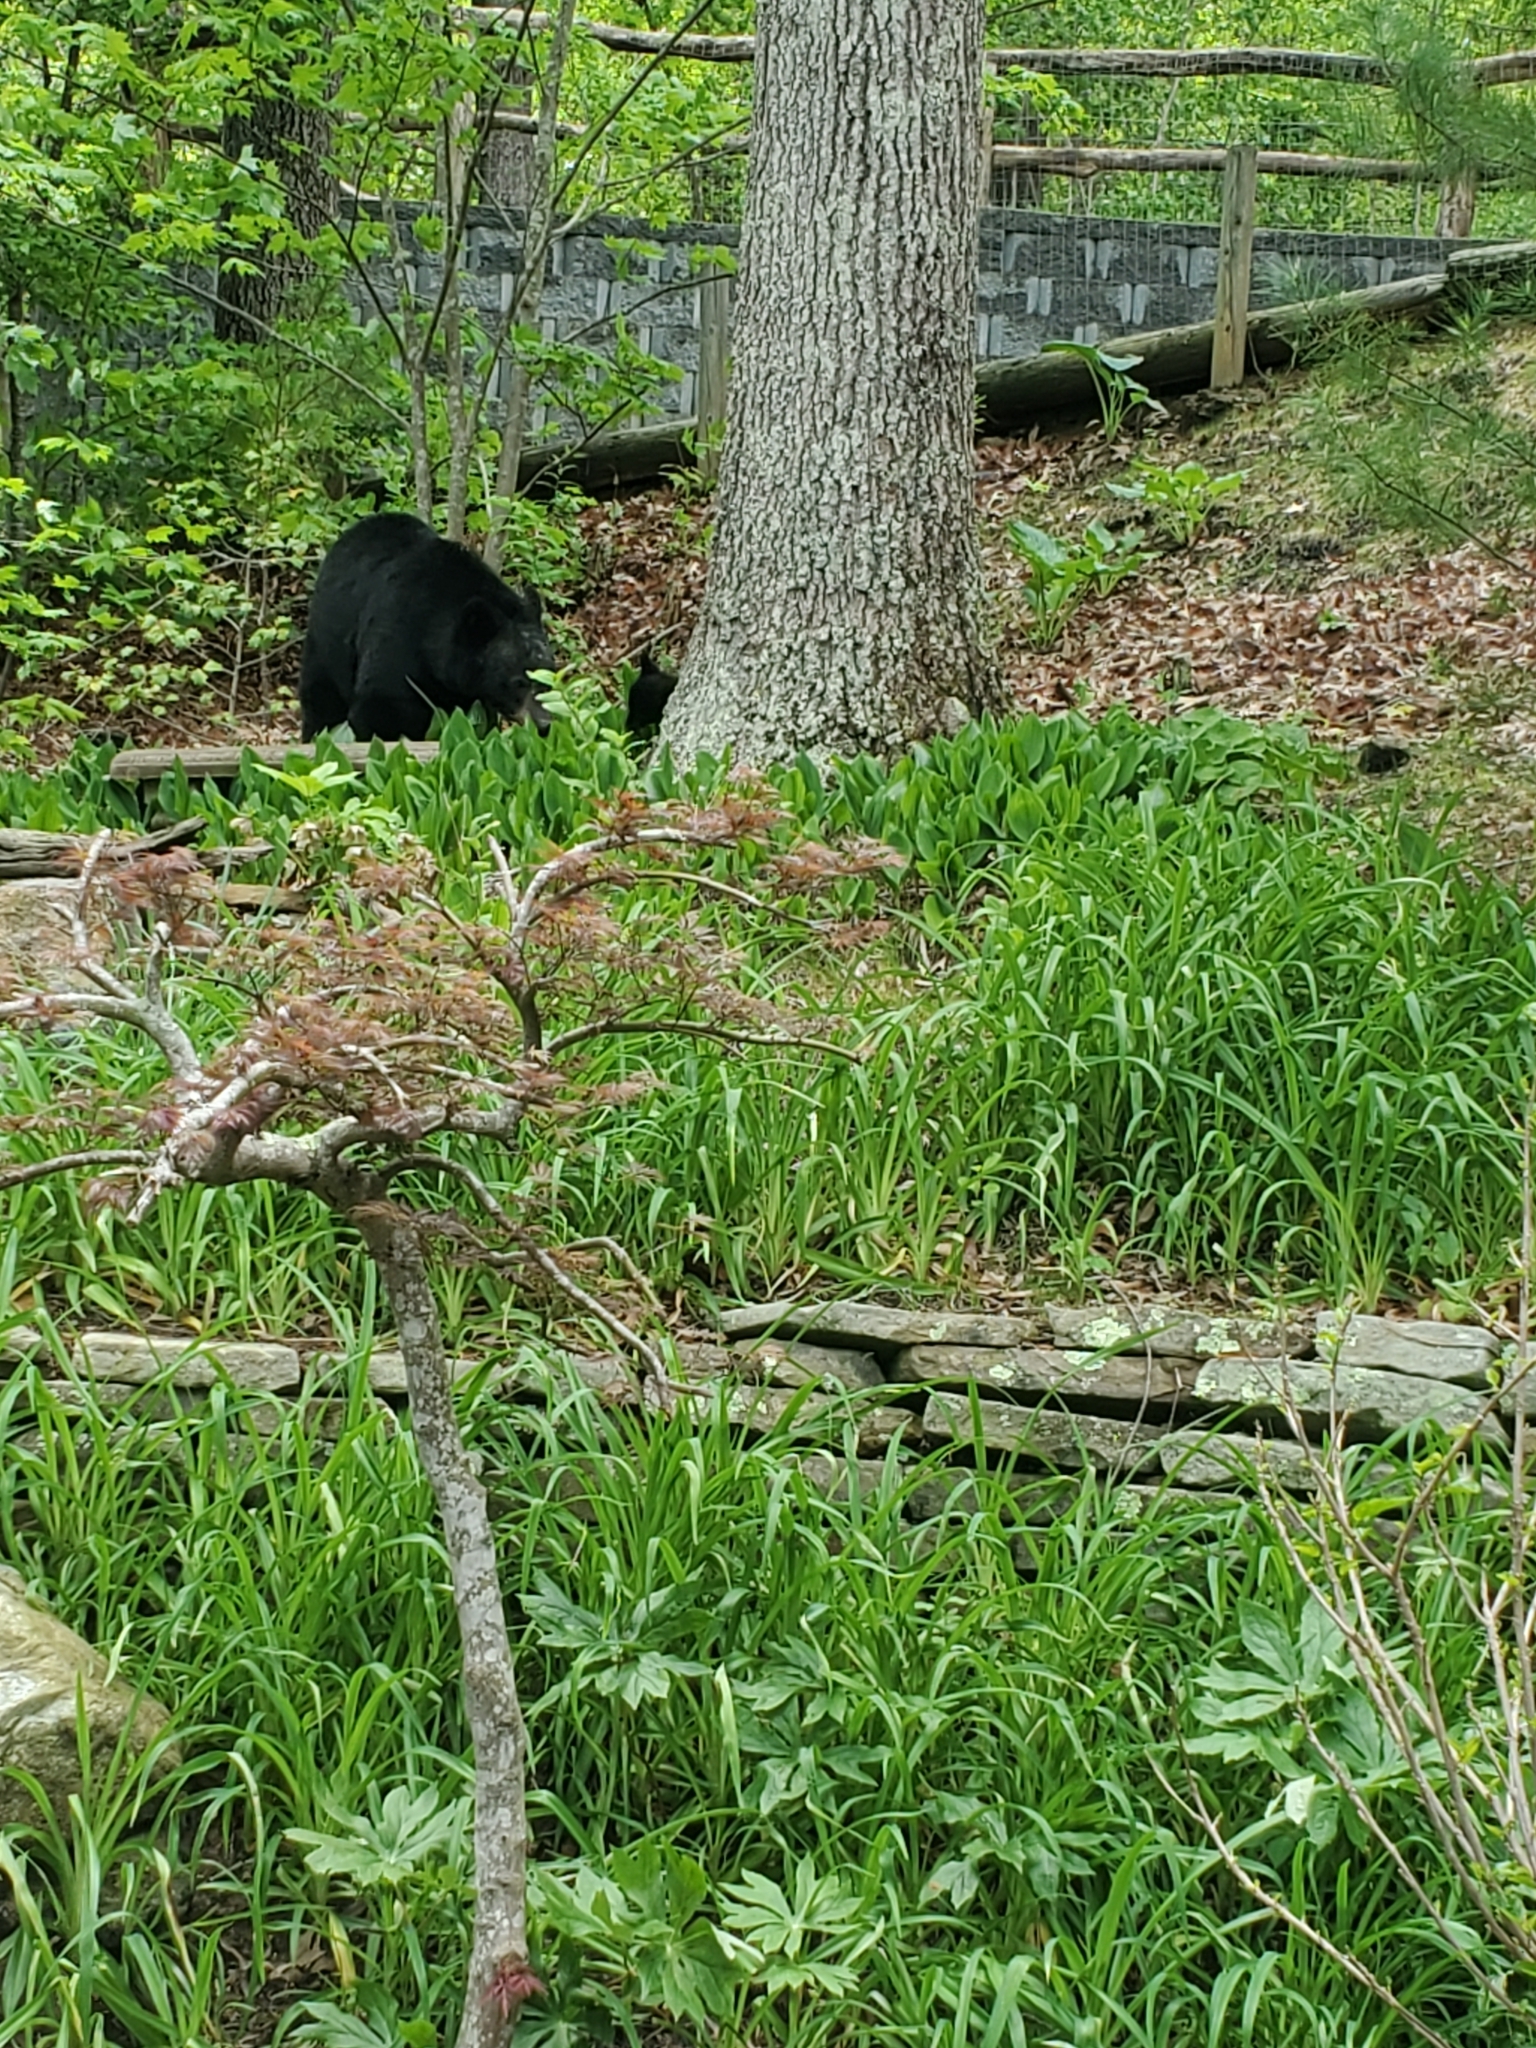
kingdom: Animalia
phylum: Chordata
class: Mammalia
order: Carnivora
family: Ursidae
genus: Ursus
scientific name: Ursus americanus
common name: American black bear
